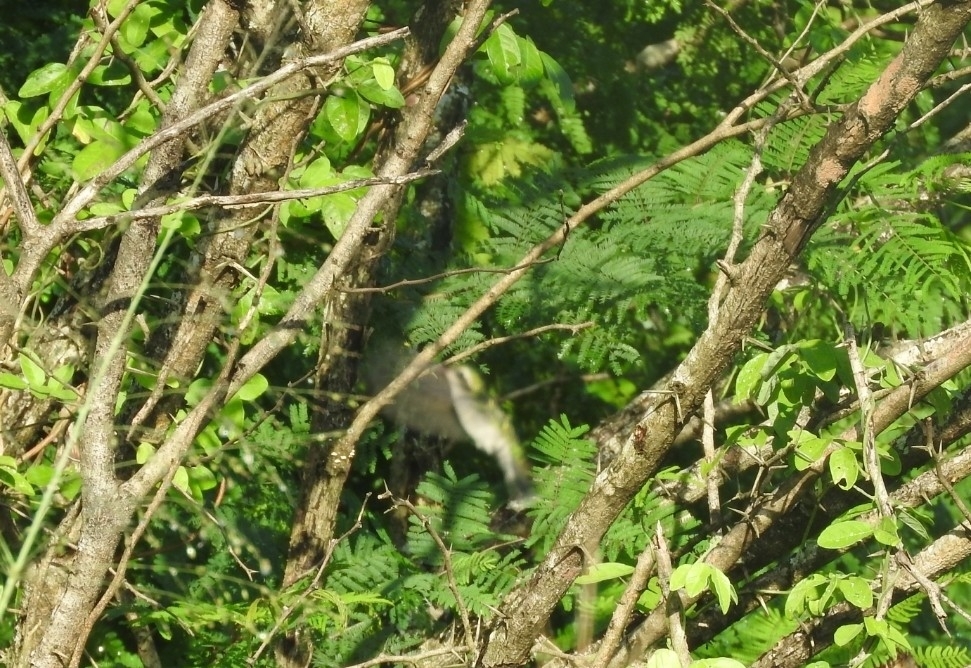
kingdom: Animalia
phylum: Chordata
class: Aves
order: Apodiformes
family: Trochilidae
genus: Cynanthus
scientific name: Cynanthus canivetii
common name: Canivet's emerald
